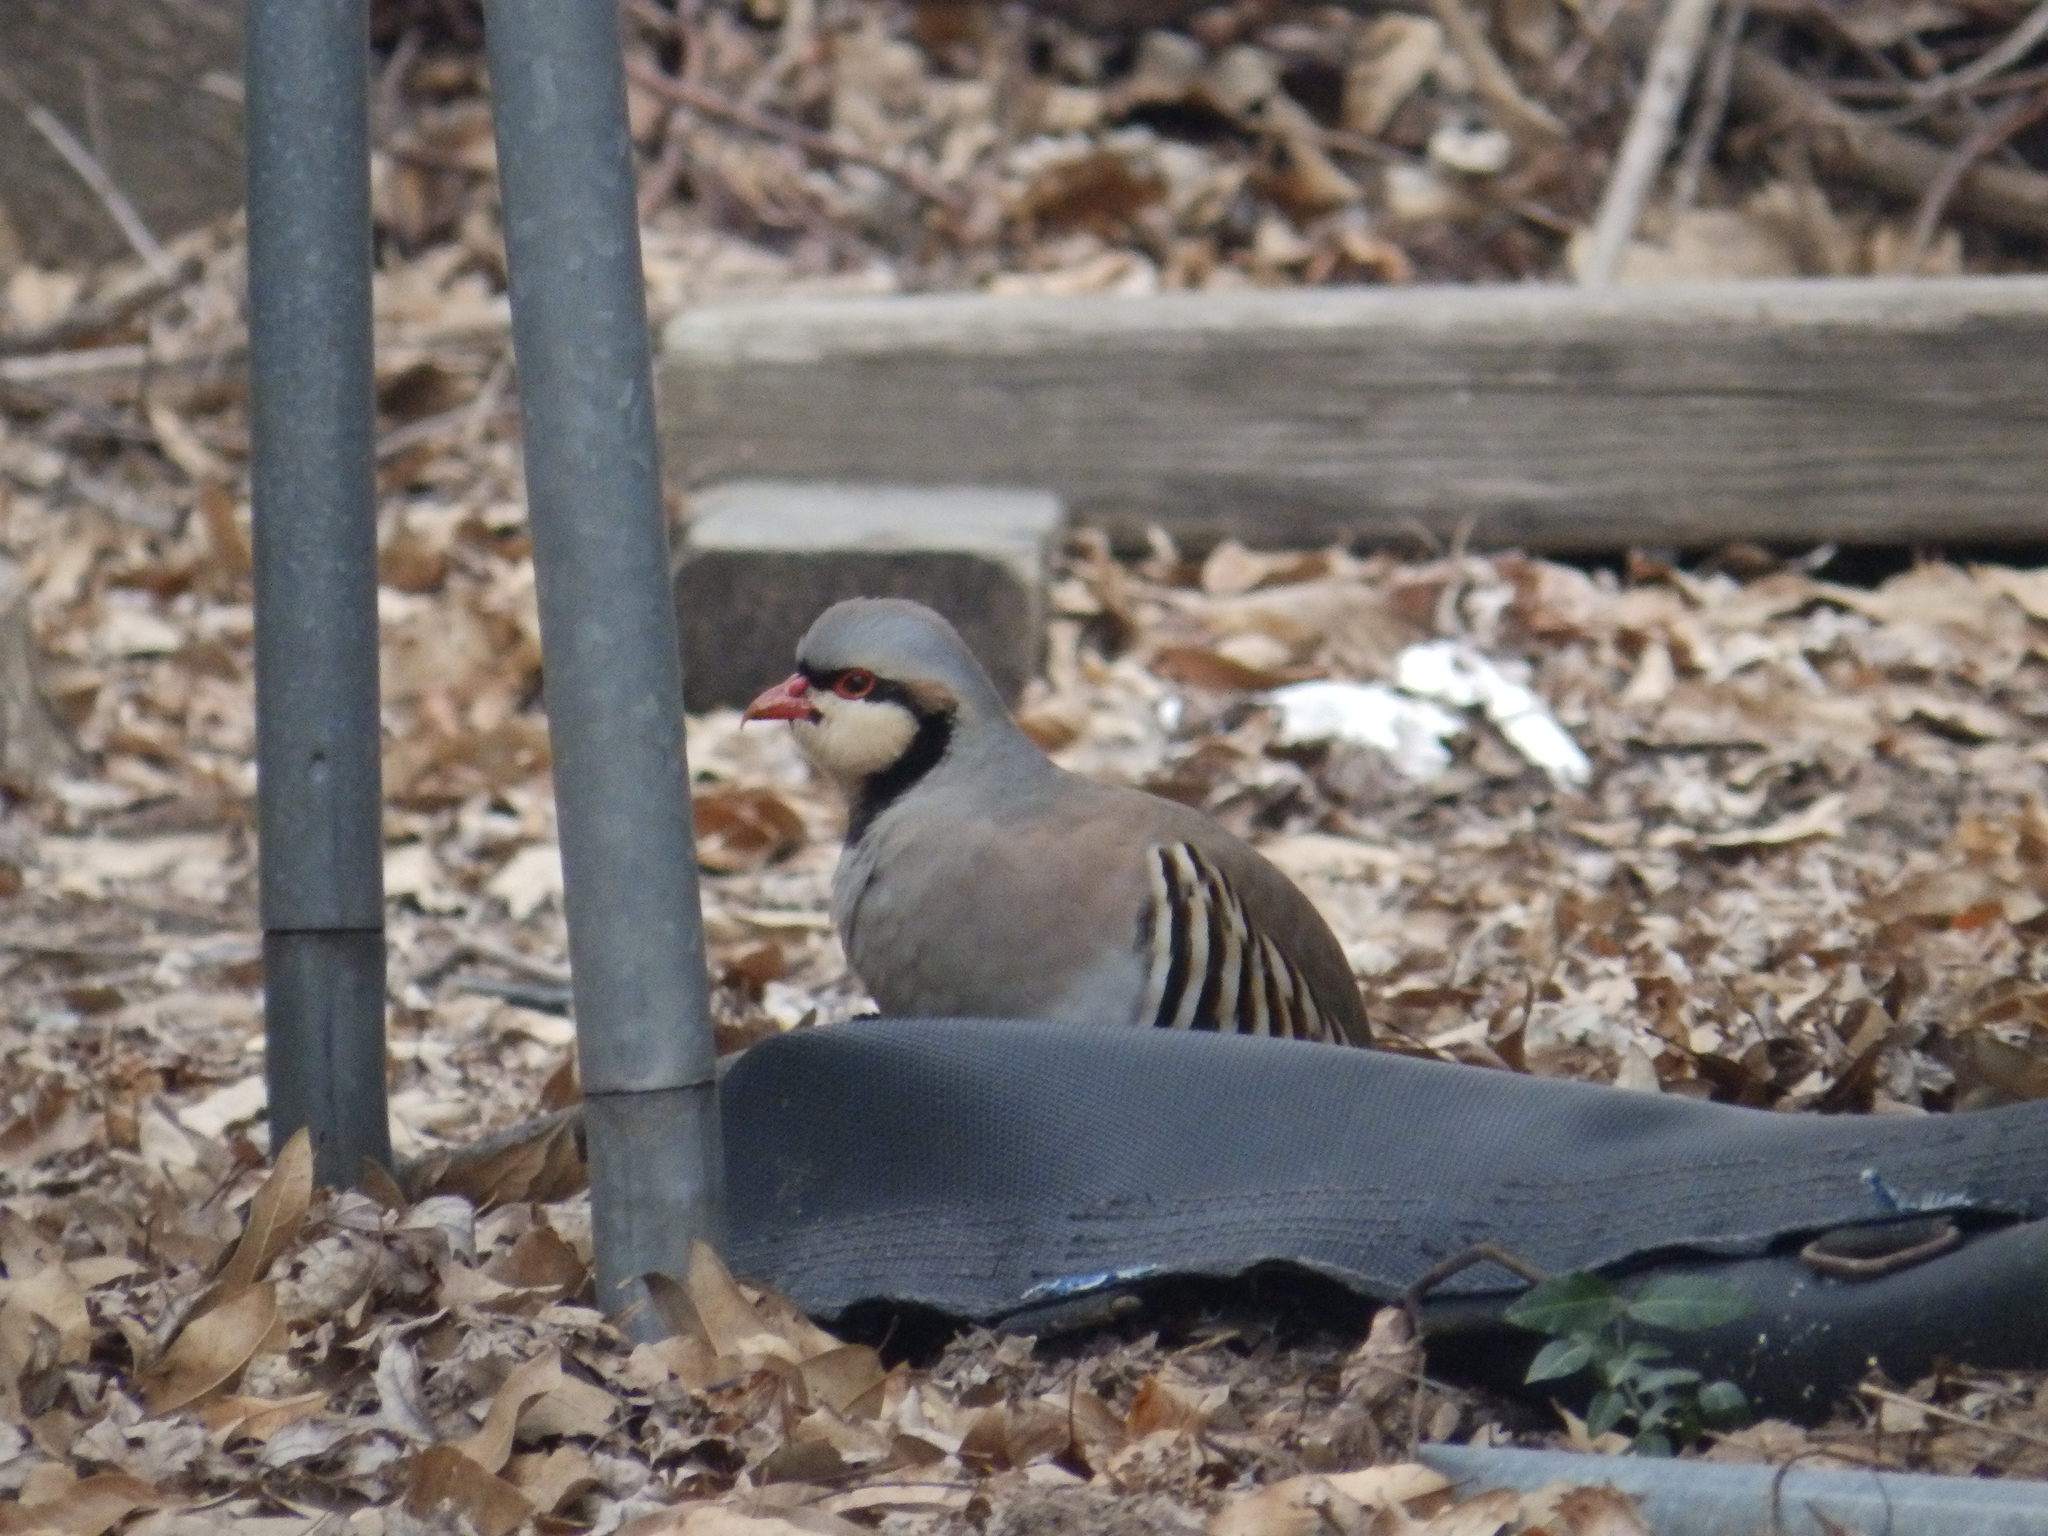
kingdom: Animalia
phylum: Chordata
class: Aves
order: Galliformes
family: Phasianidae
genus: Alectoris
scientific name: Alectoris chukar
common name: Chukar
